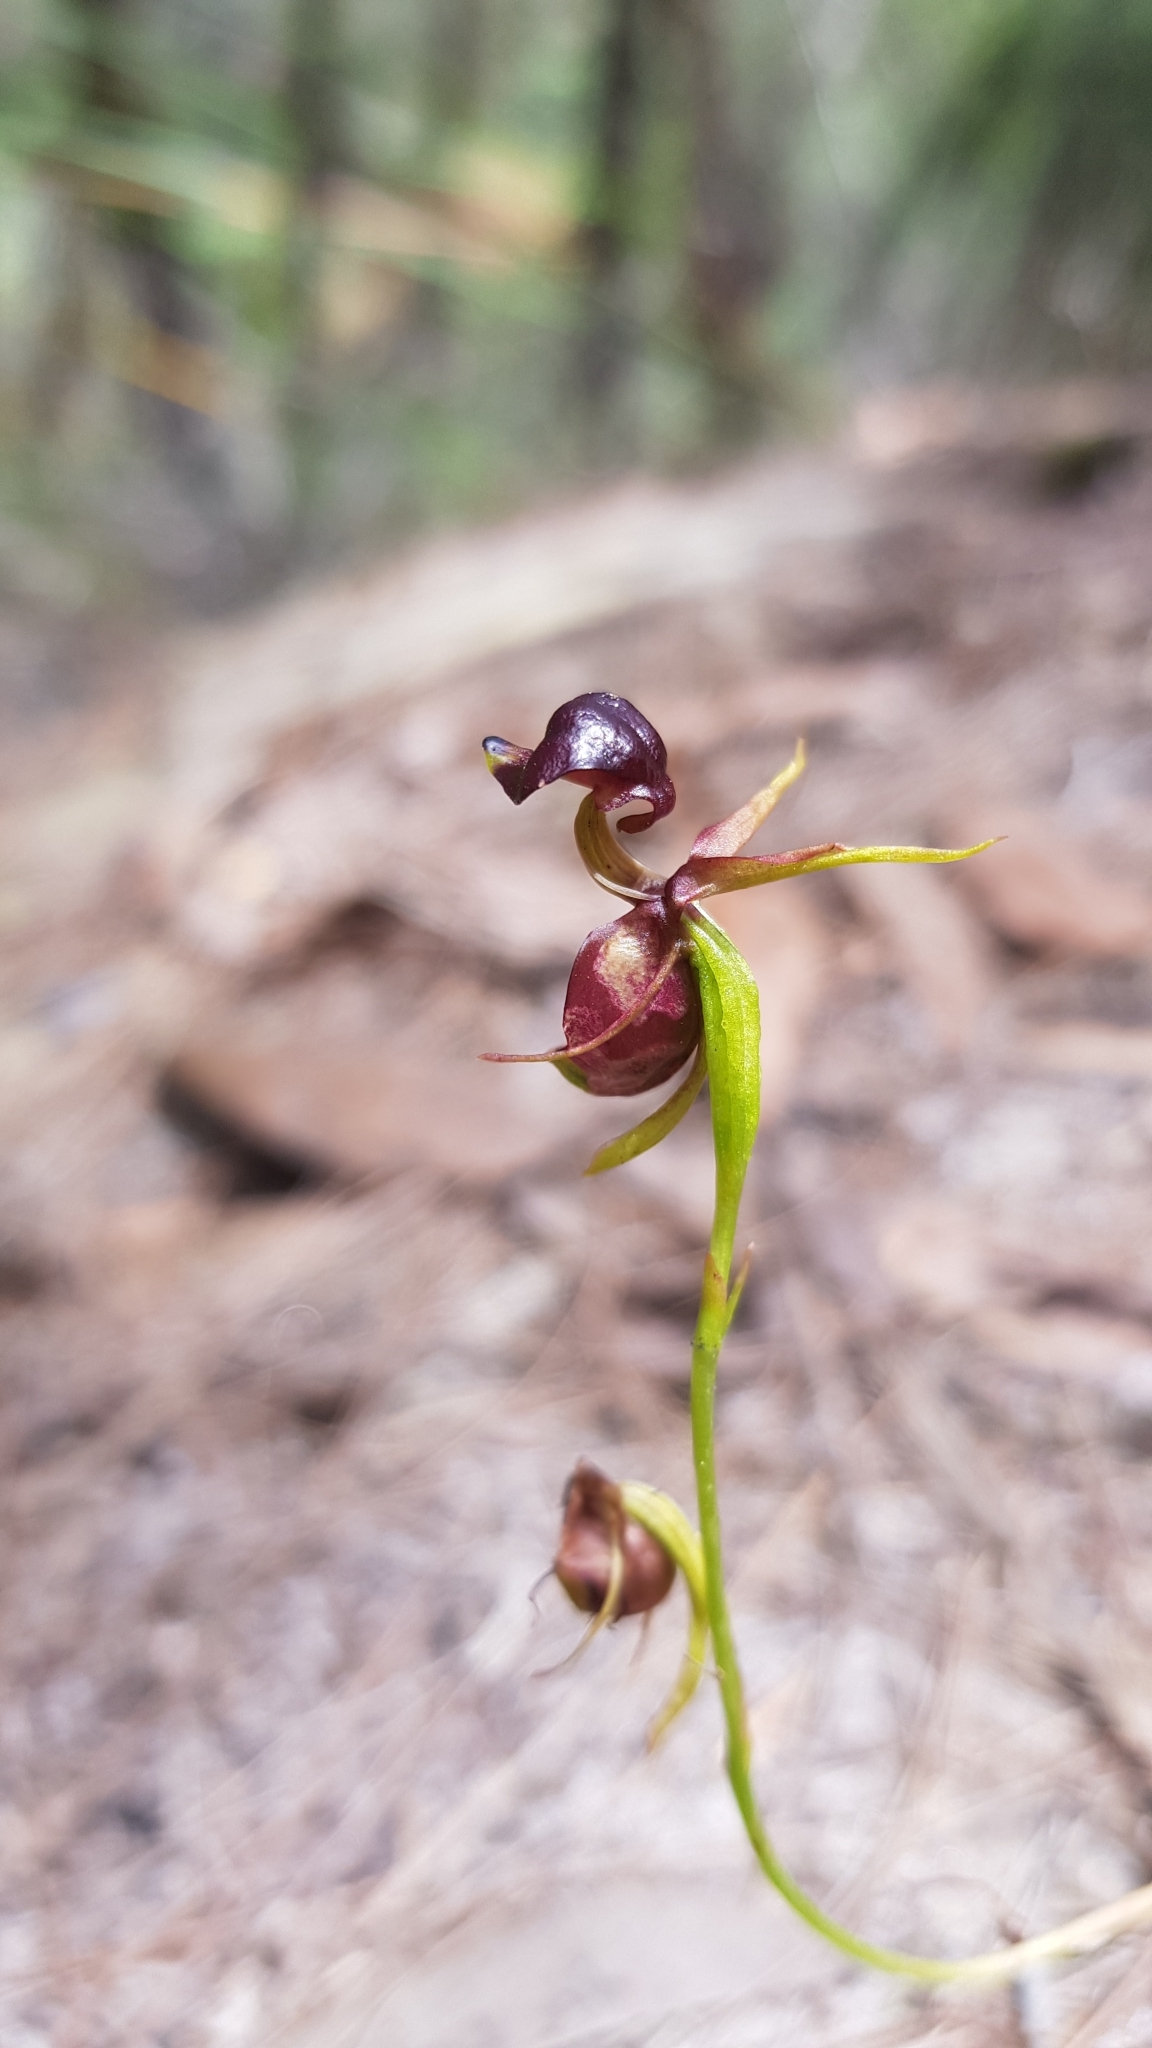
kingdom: Plantae
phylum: Tracheophyta
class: Liliopsida
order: Asparagales
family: Orchidaceae
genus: Caleana
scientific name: Caleana major
